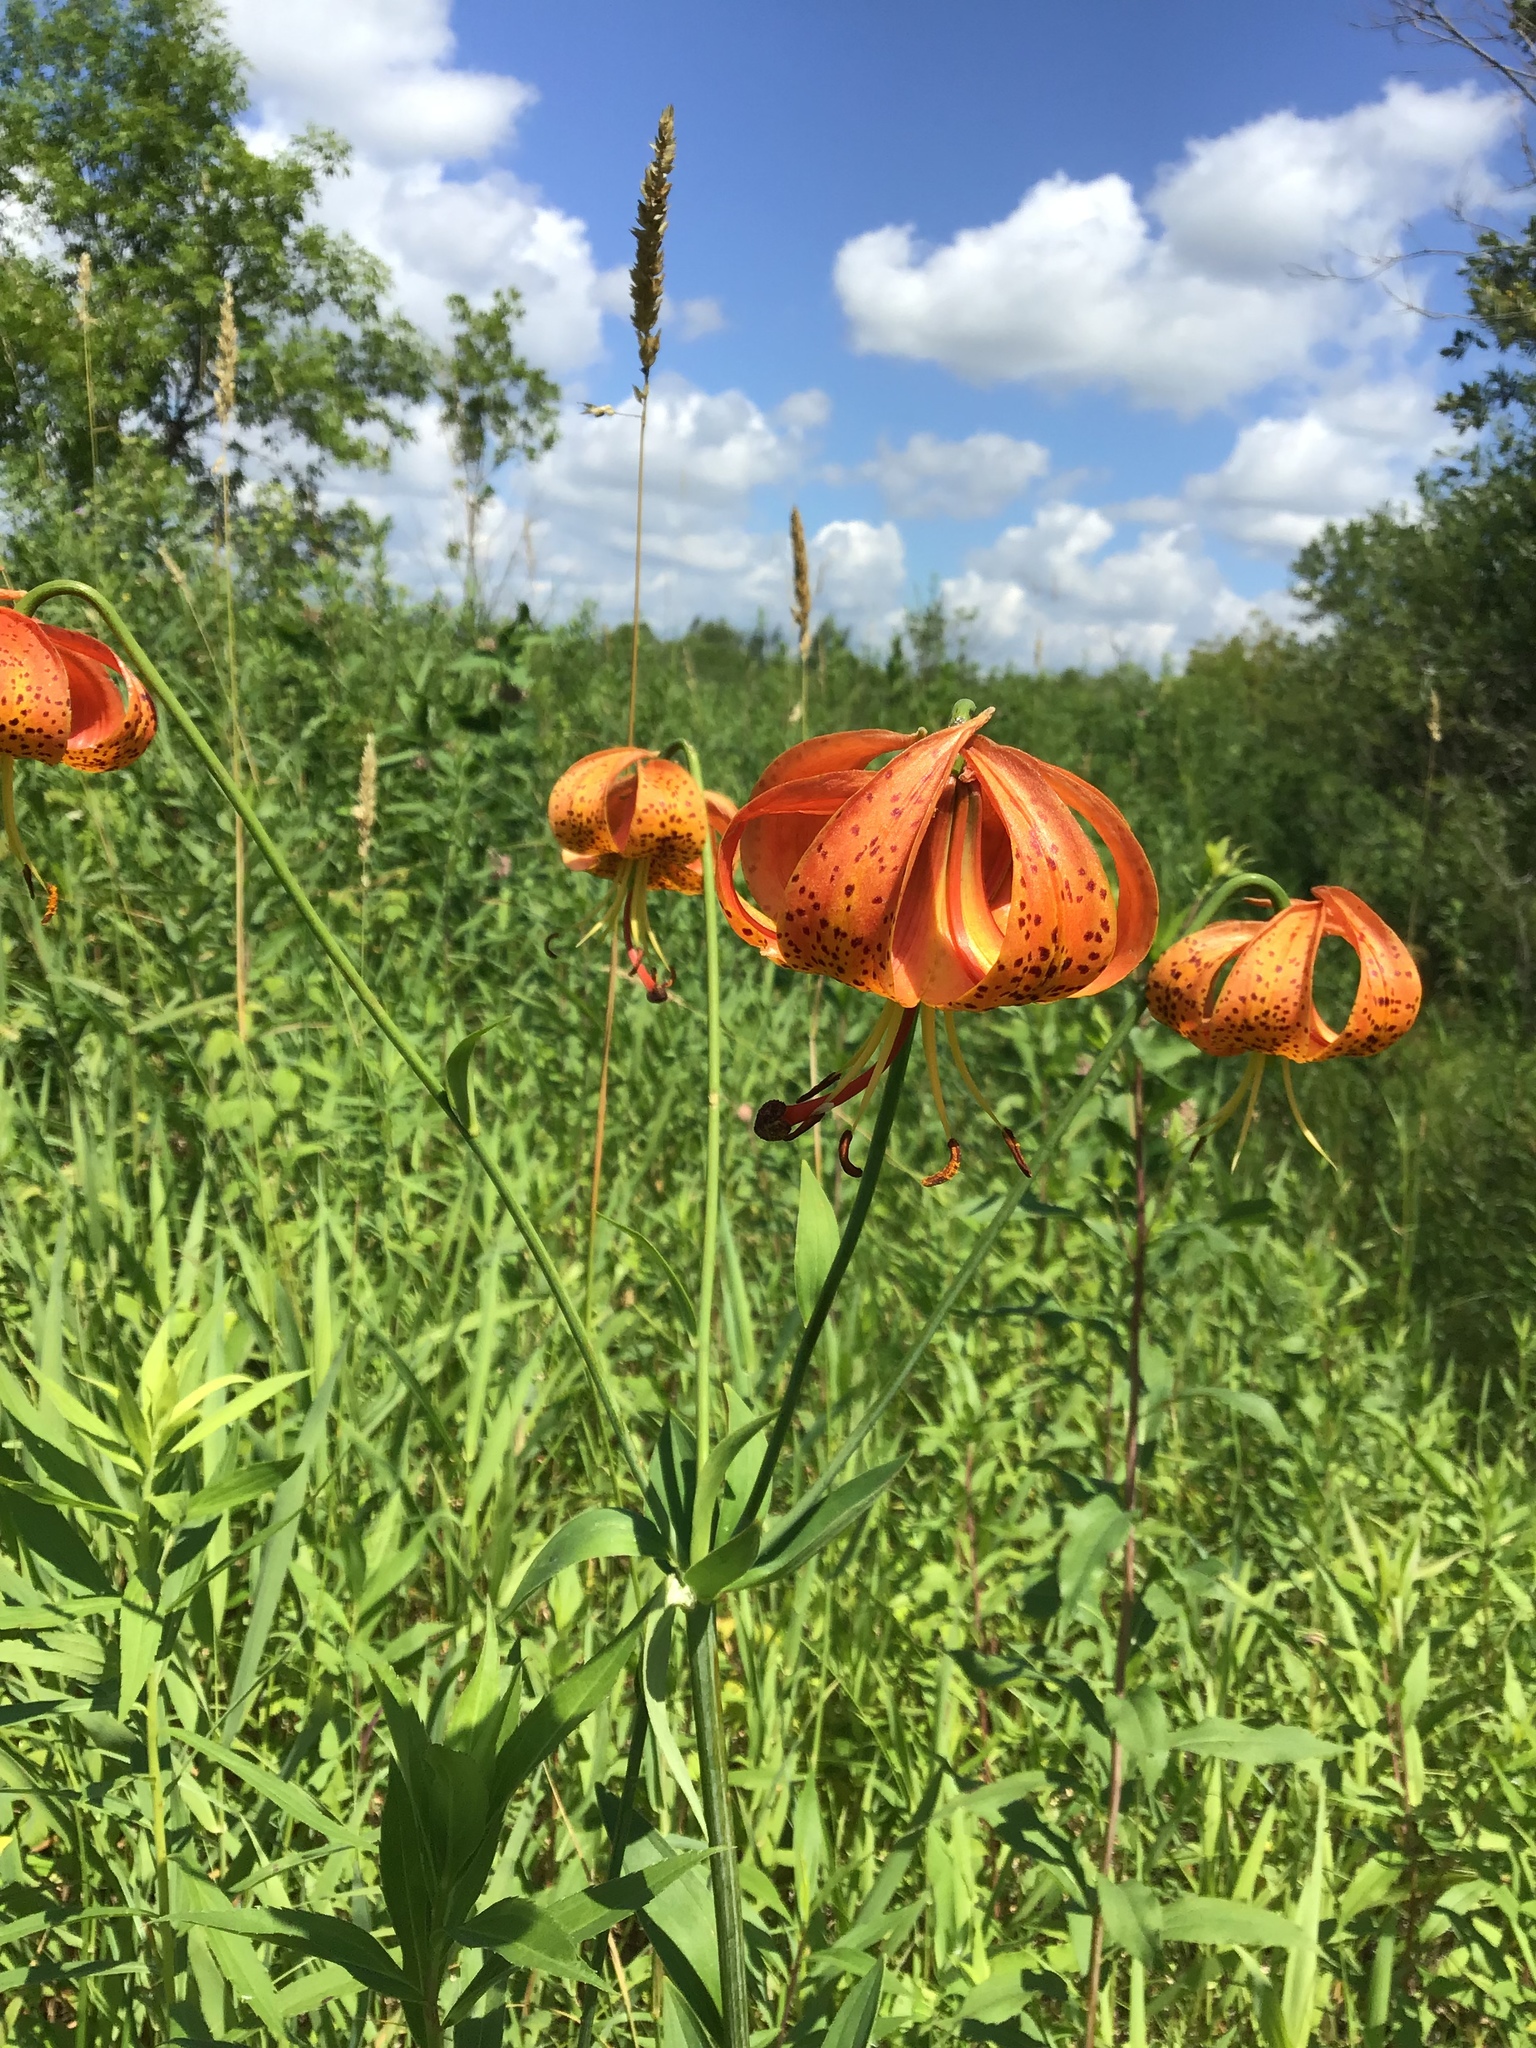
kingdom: Plantae
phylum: Tracheophyta
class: Liliopsida
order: Liliales
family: Liliaceae
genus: Lilium
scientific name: Lilium michiganense
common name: Michigan lily
